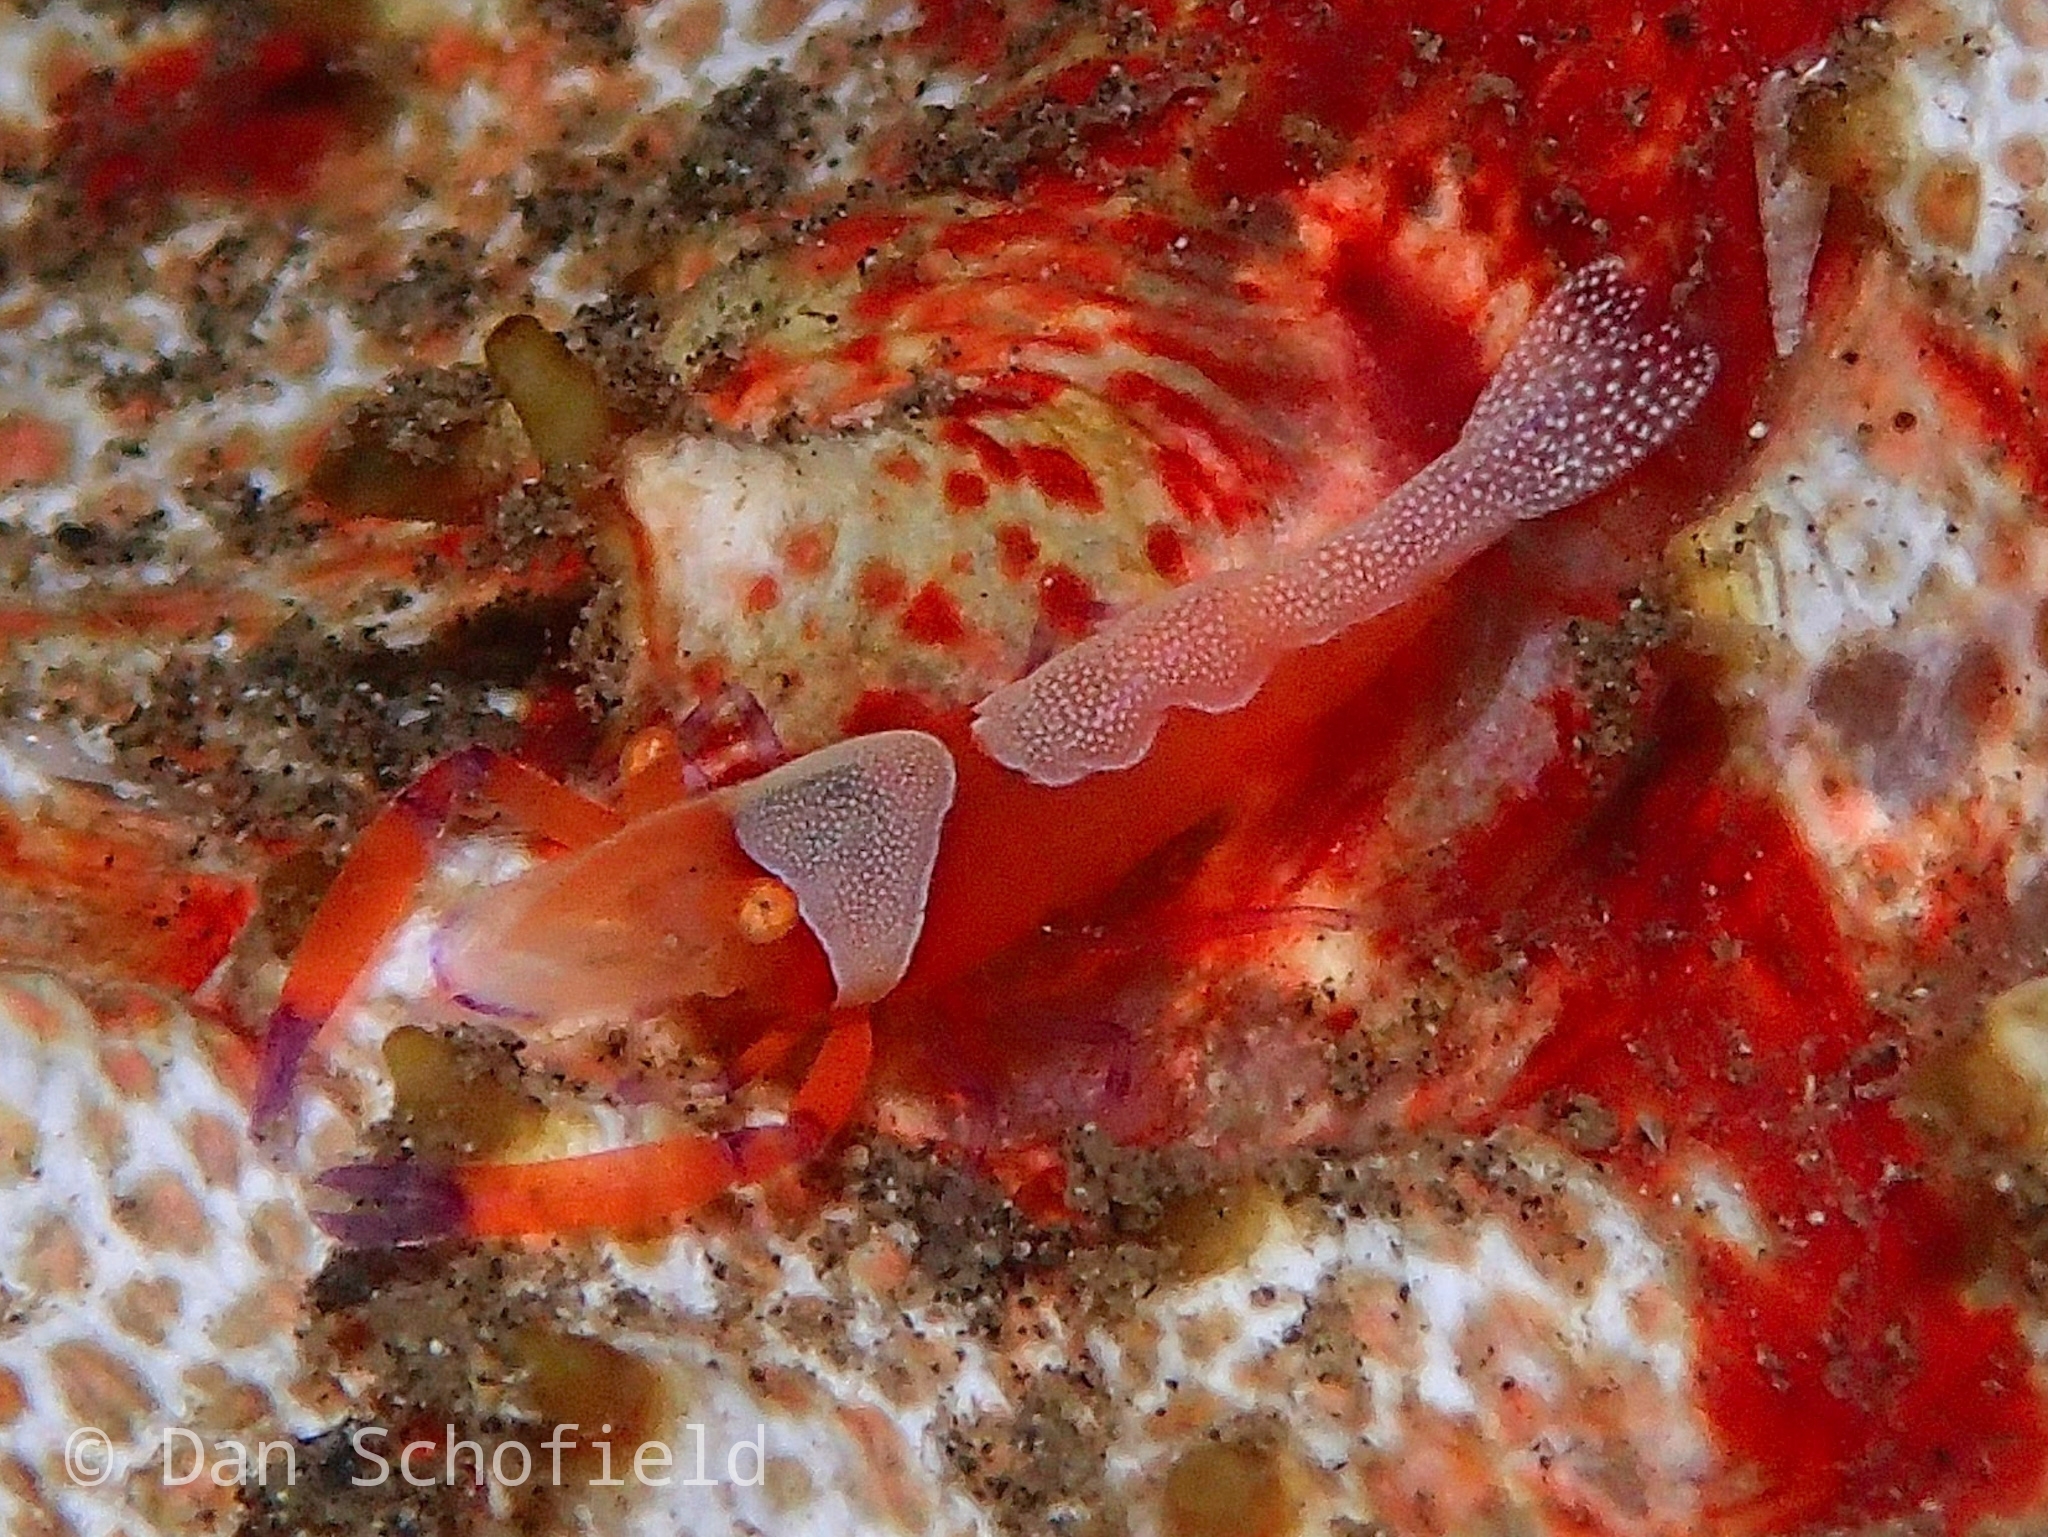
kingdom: Animalia
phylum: Arthropoda
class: Malacostraca
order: Decapoda
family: Palaemonidae
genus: Periclimenes
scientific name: Periclimenes rex
